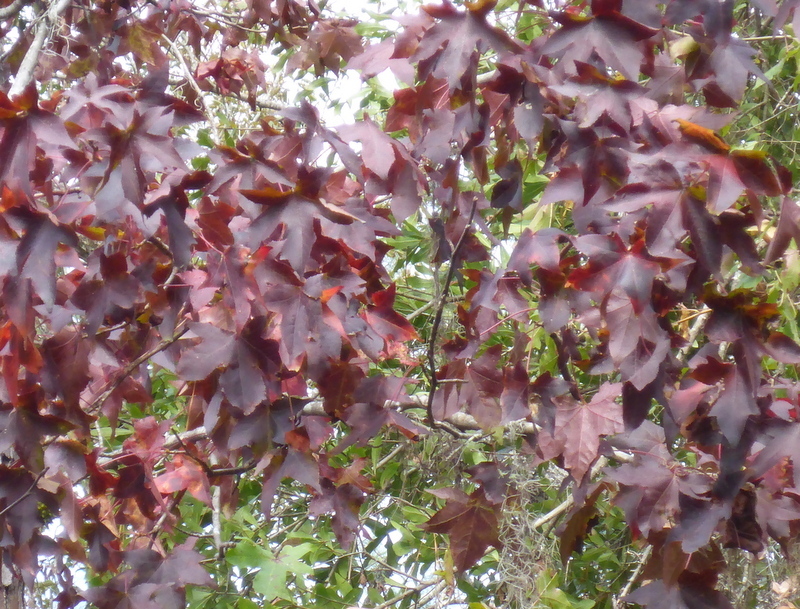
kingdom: Plantae
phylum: Tracheophyta
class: Magnoliopsida
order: Saxifragales
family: Altingiaceae
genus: Liquidambar
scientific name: Liquidambar styraciflua
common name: Sweet gum
